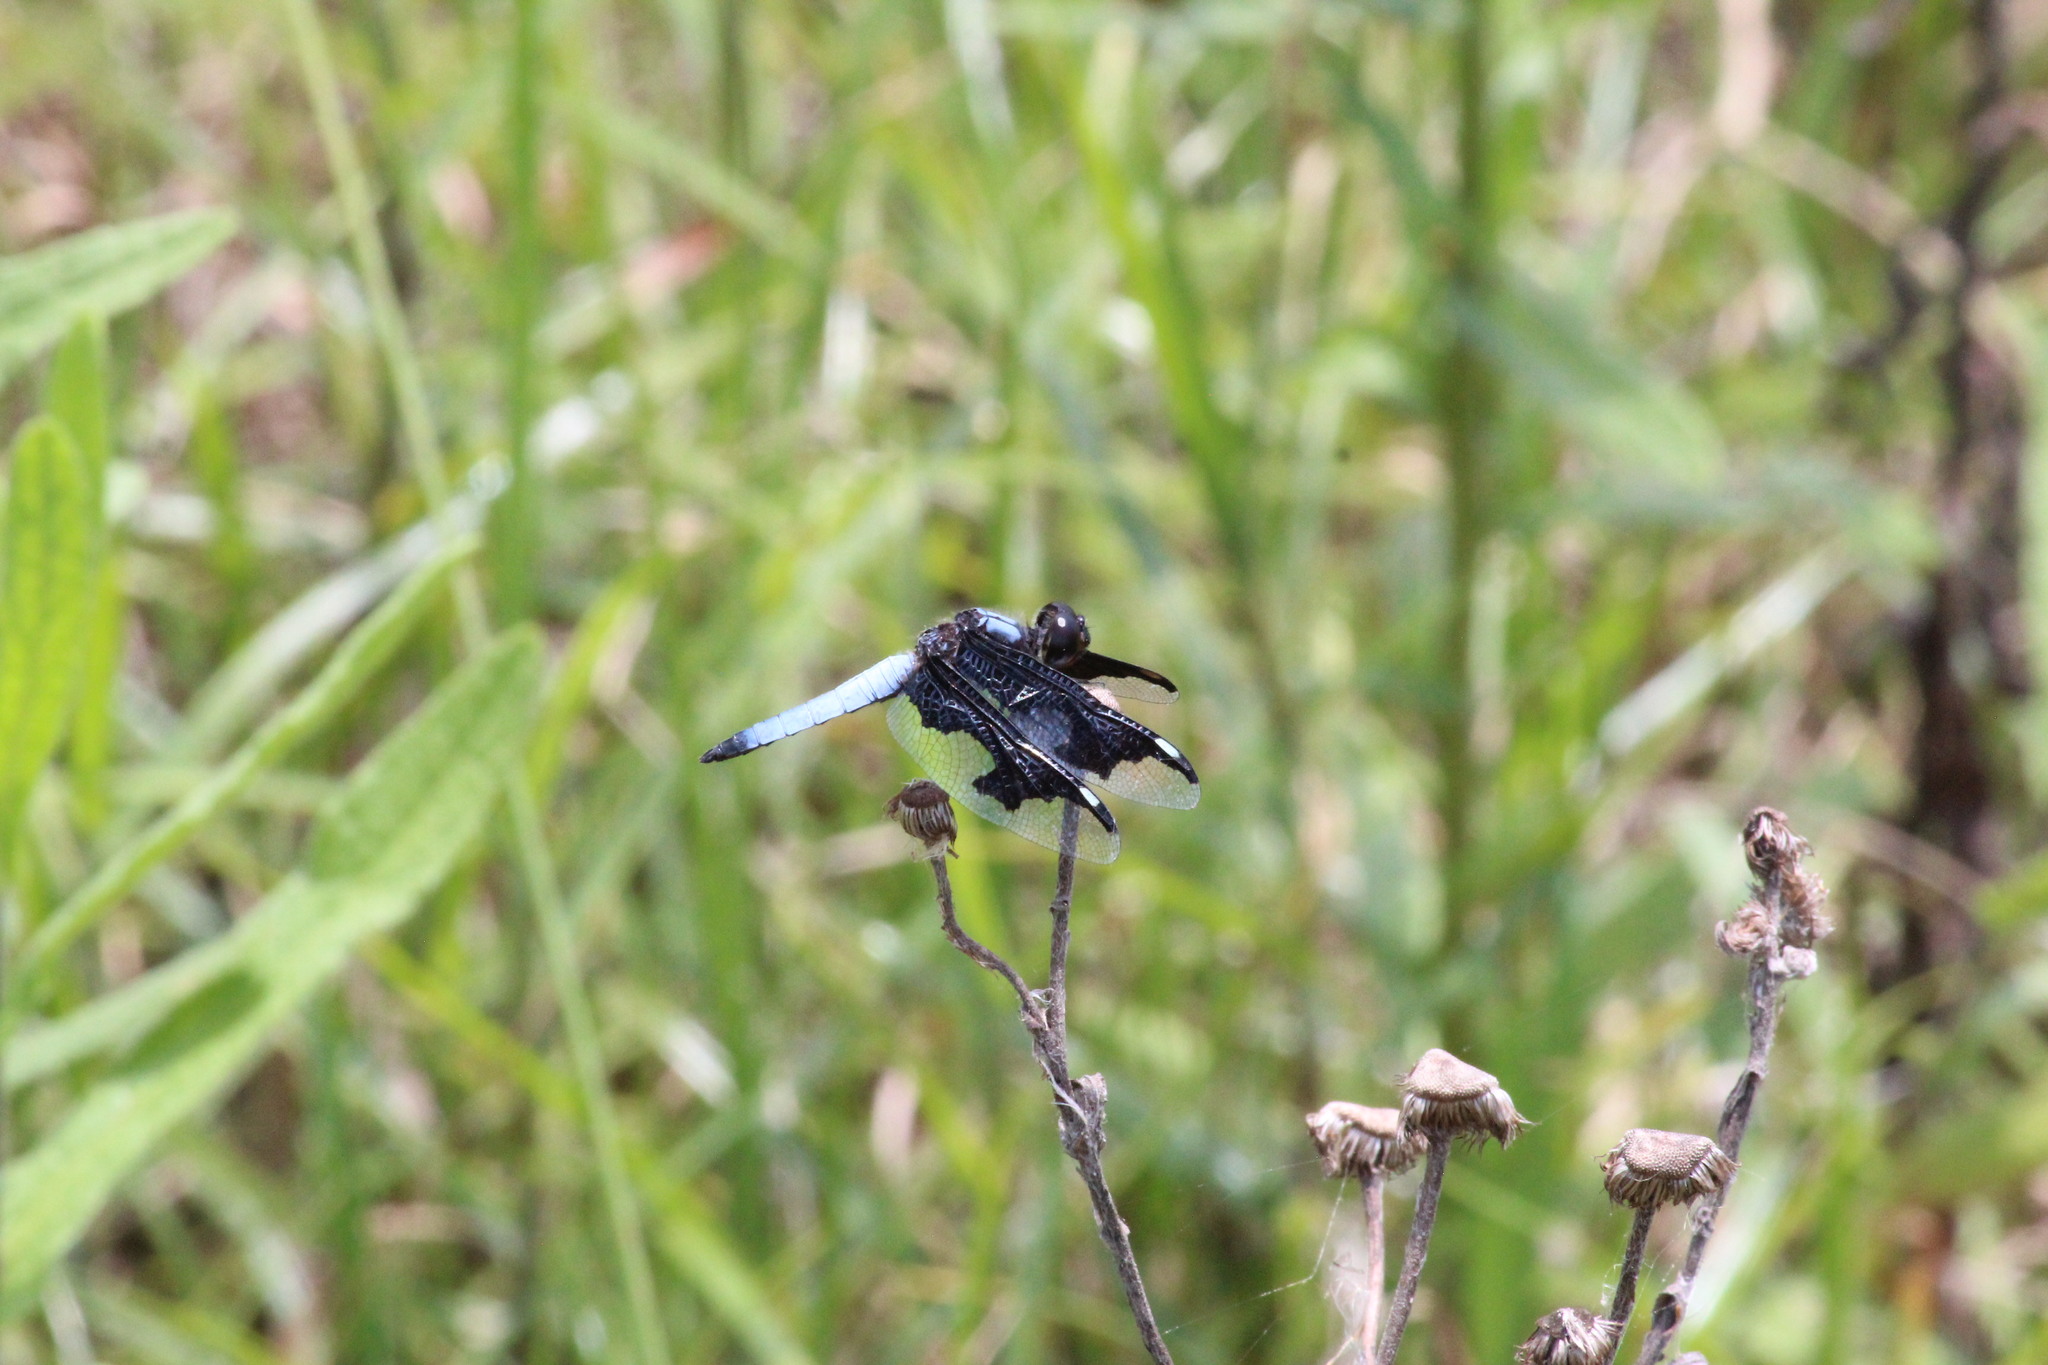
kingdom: Animalia
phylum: Arthropoda
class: Insecta
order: Odonata
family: Libellulidae
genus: Palpopleura
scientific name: Palpopleura portia
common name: Portia widow
